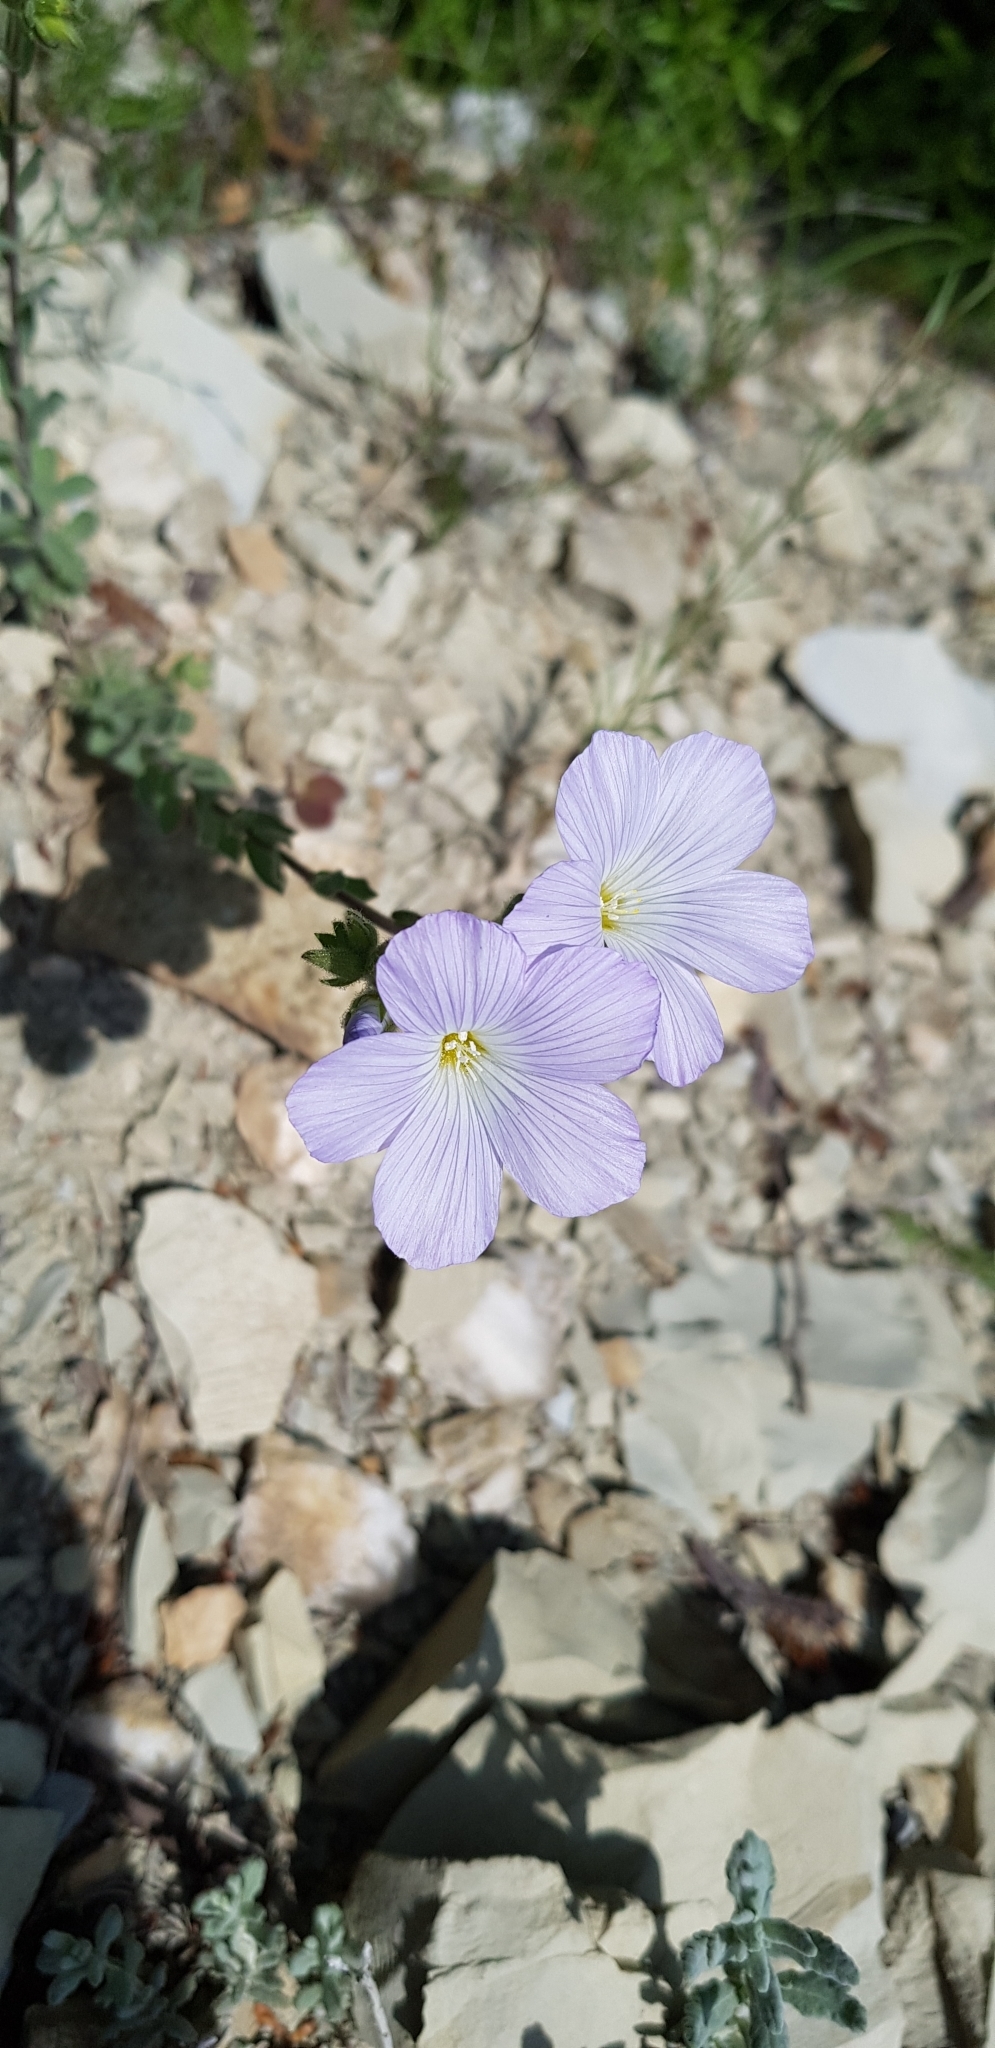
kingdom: Plantae
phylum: Tracheophyta
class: Magnoliopsida
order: Malpighiales
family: Linaceae
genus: Linum
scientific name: Linum hirsutum
